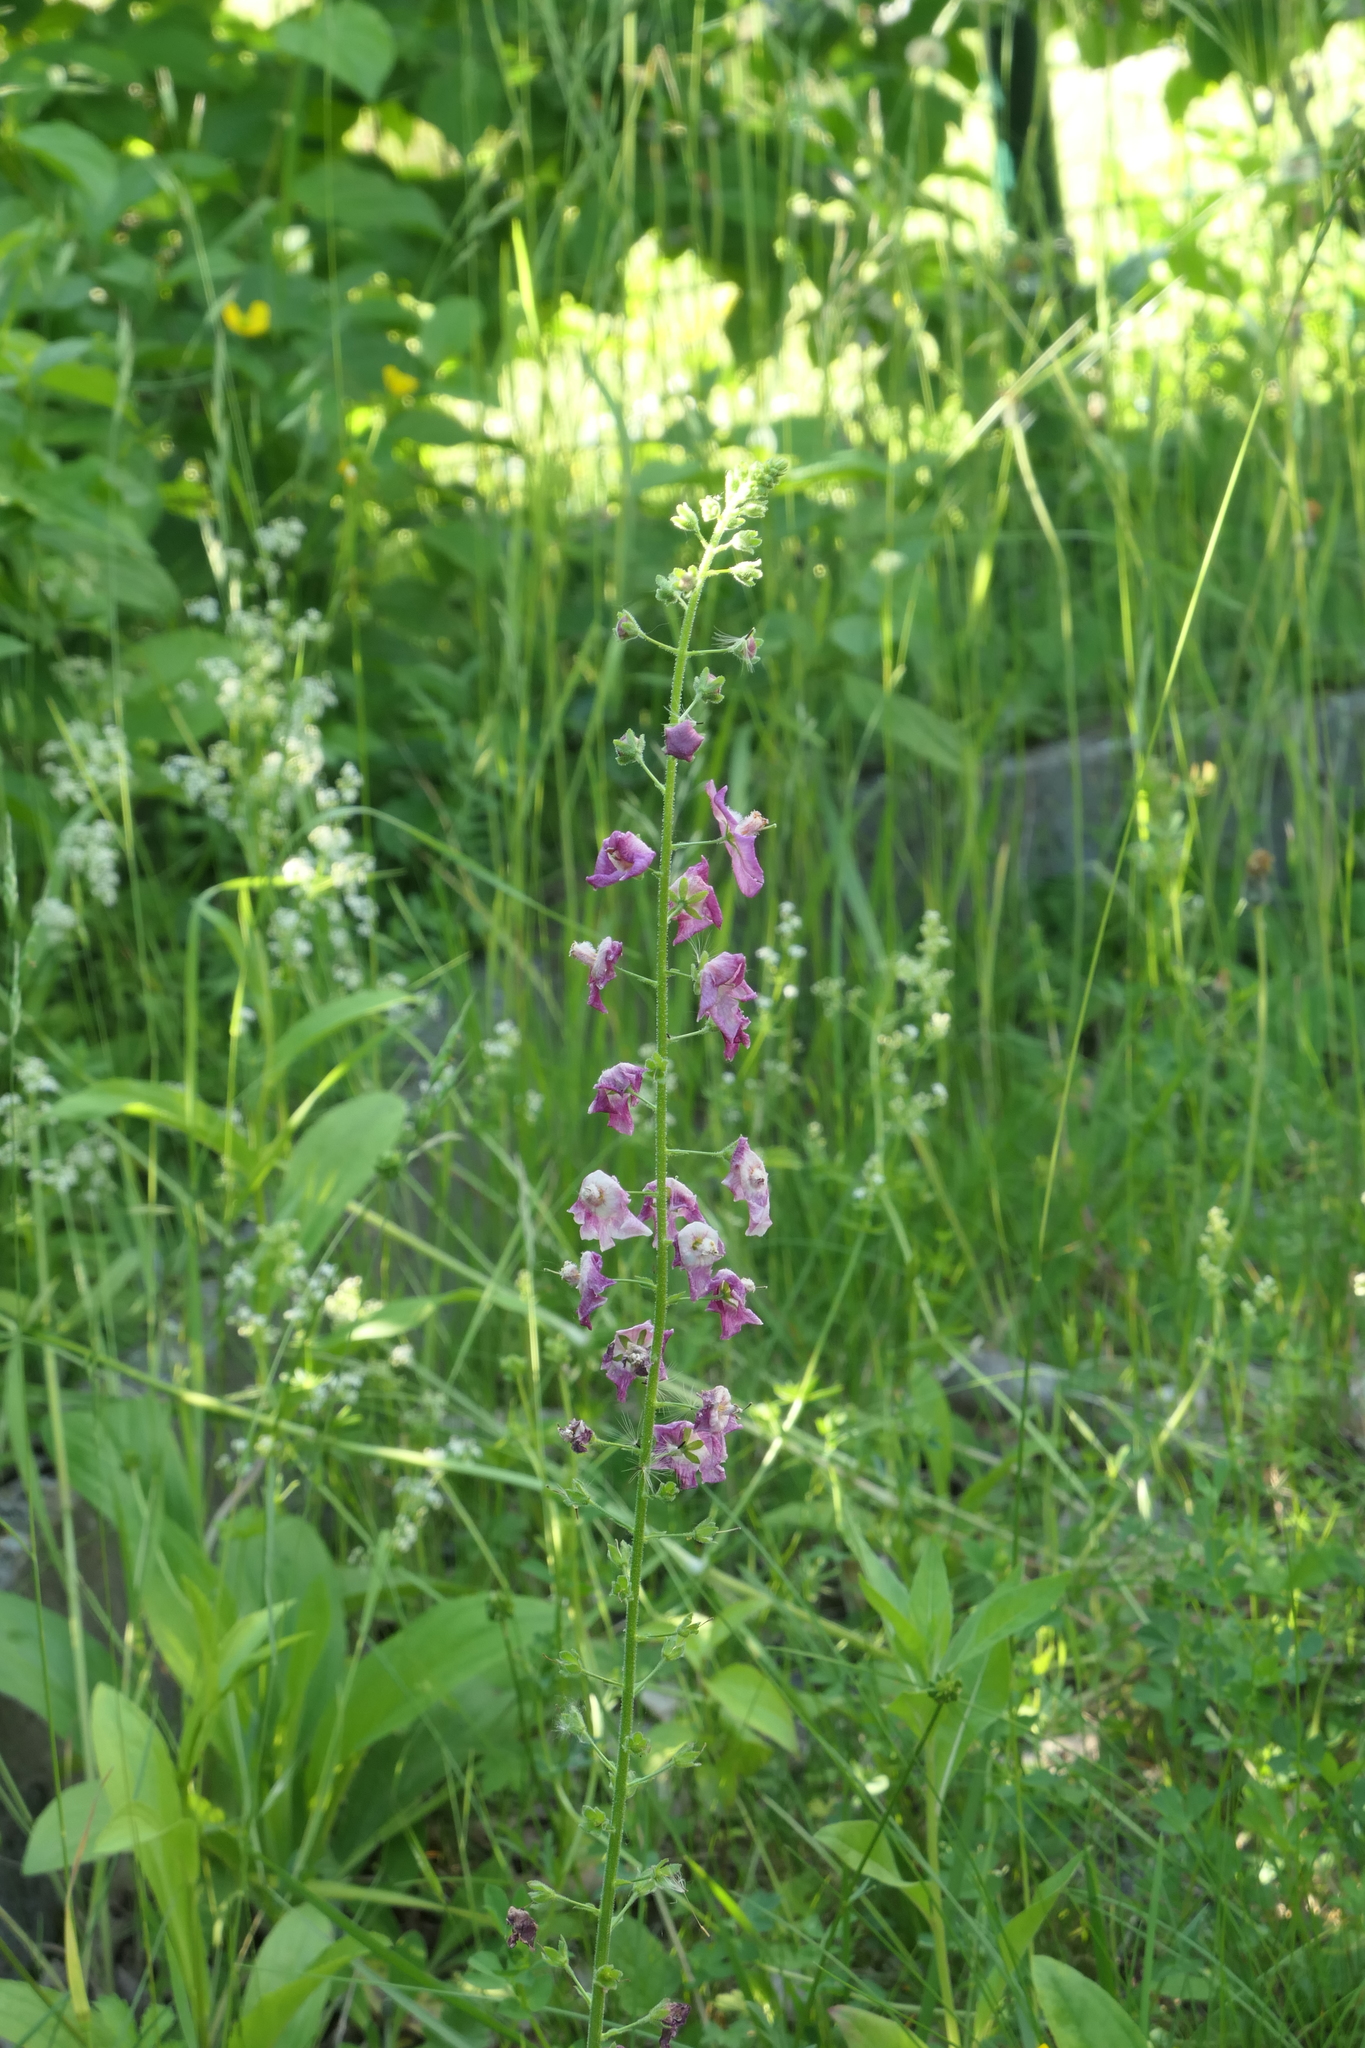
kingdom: Plantae
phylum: Tracheophyta
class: Magnoliopsida
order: Lamiales
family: Scrophulariaceae
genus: Verbascum
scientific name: Verbascum phoeniceum
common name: Purple mullein
